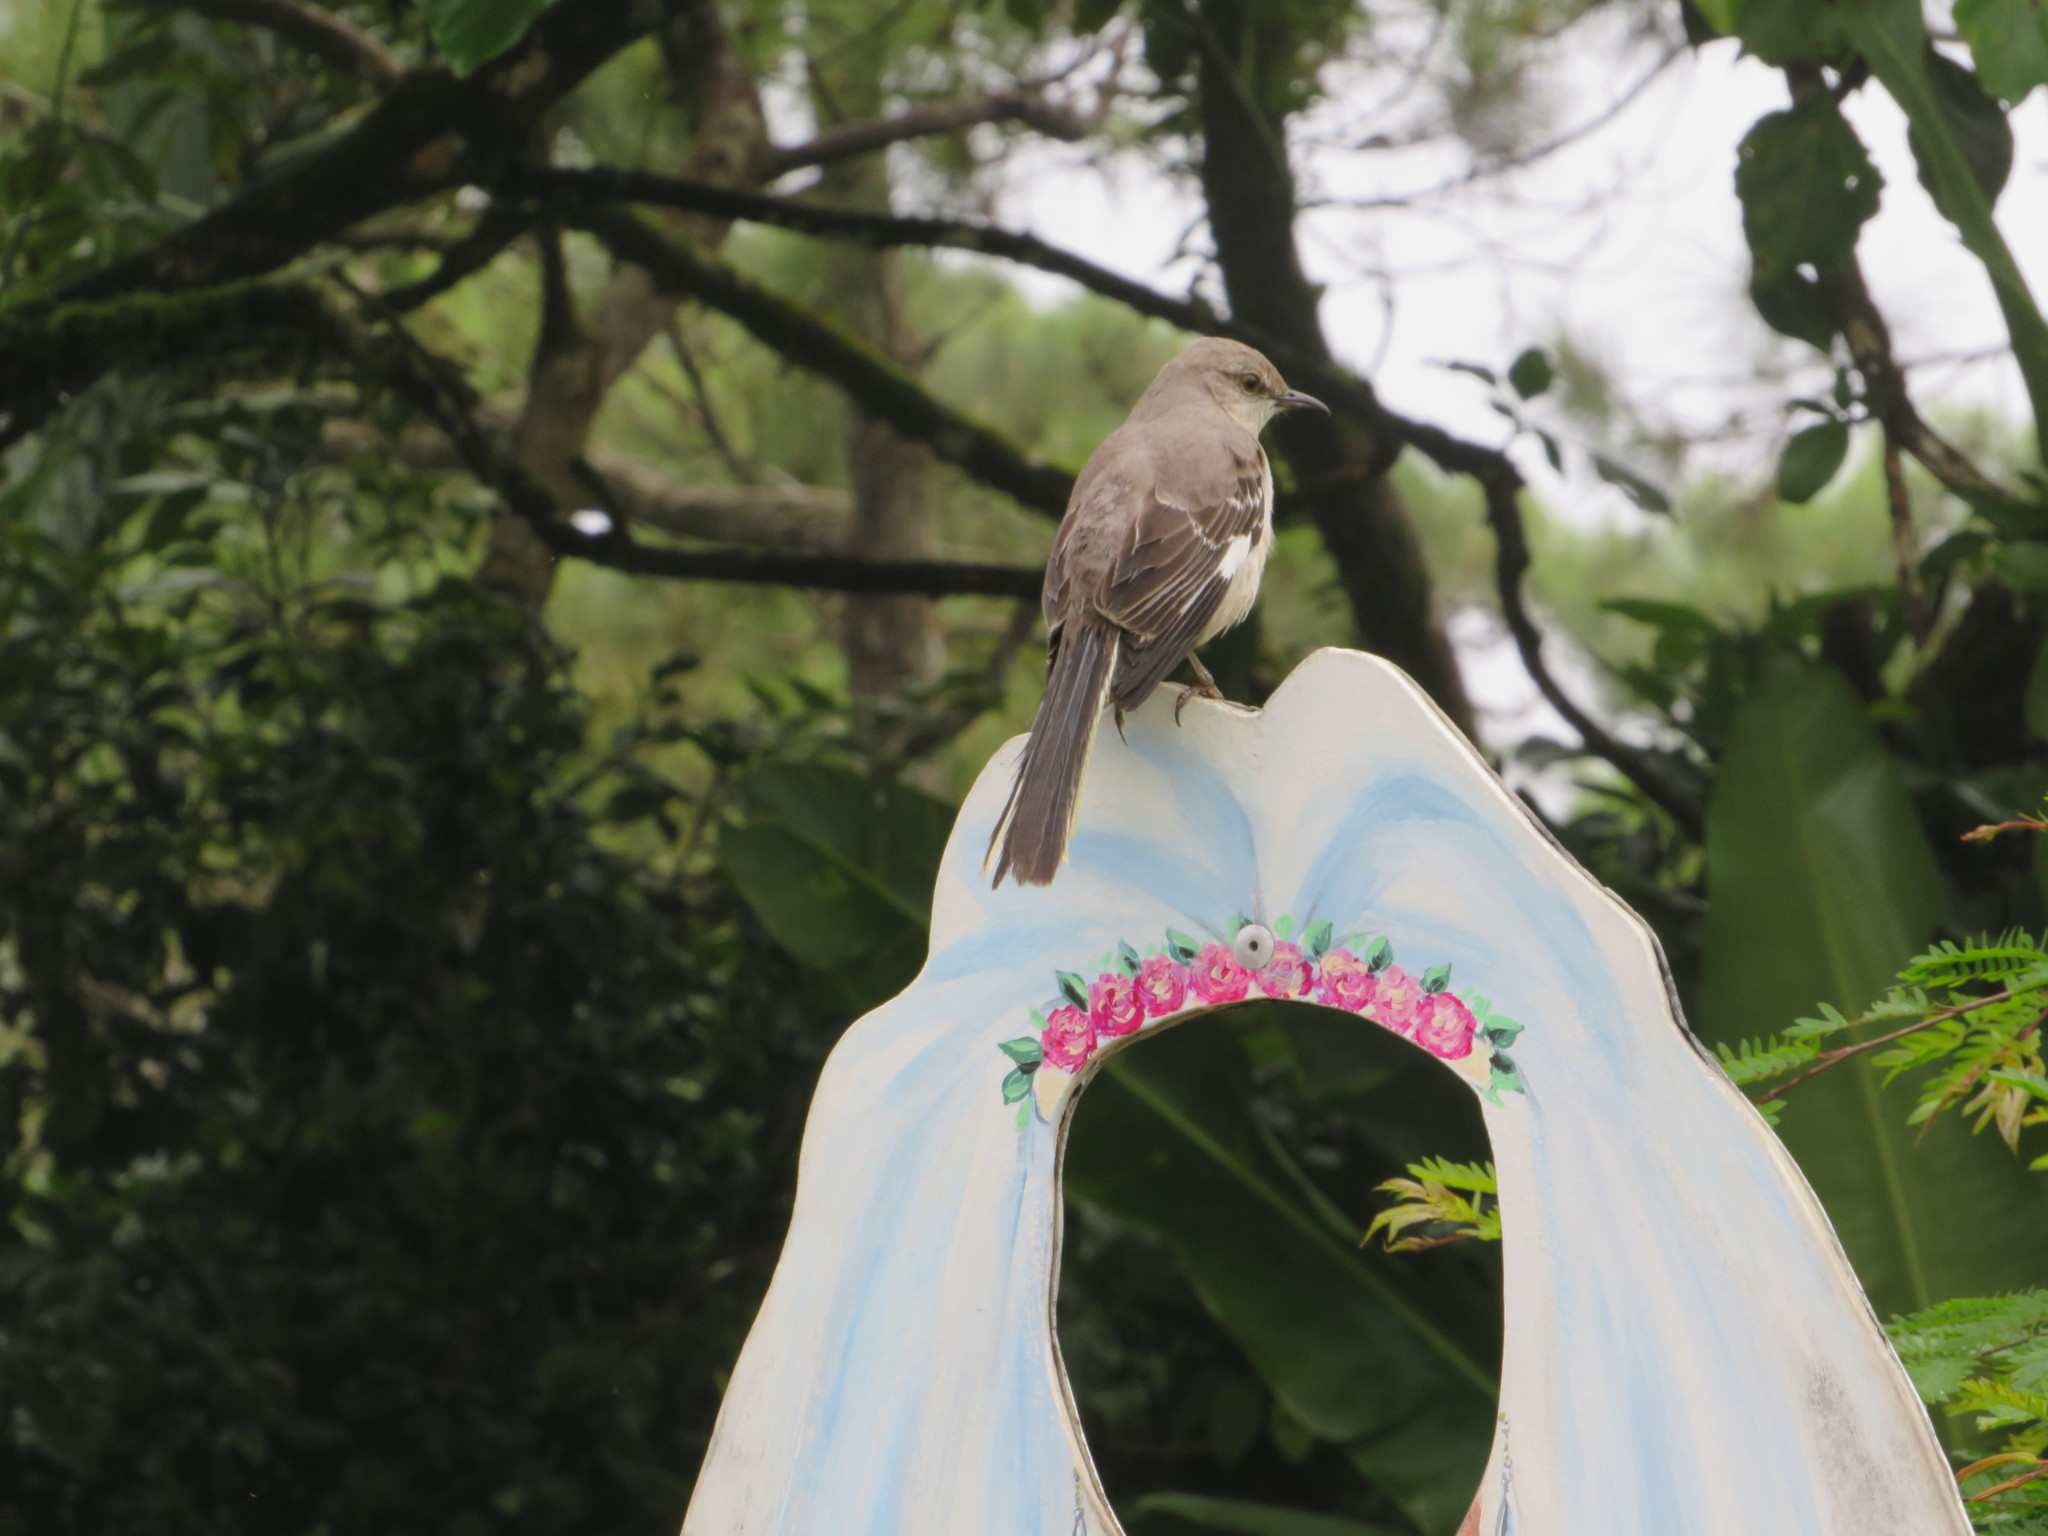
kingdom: Animalia
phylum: Chordata
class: Aves
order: Passeriformes
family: Mimidae
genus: Mimus
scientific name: Mimus polyglottos
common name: Northern mockingbird
